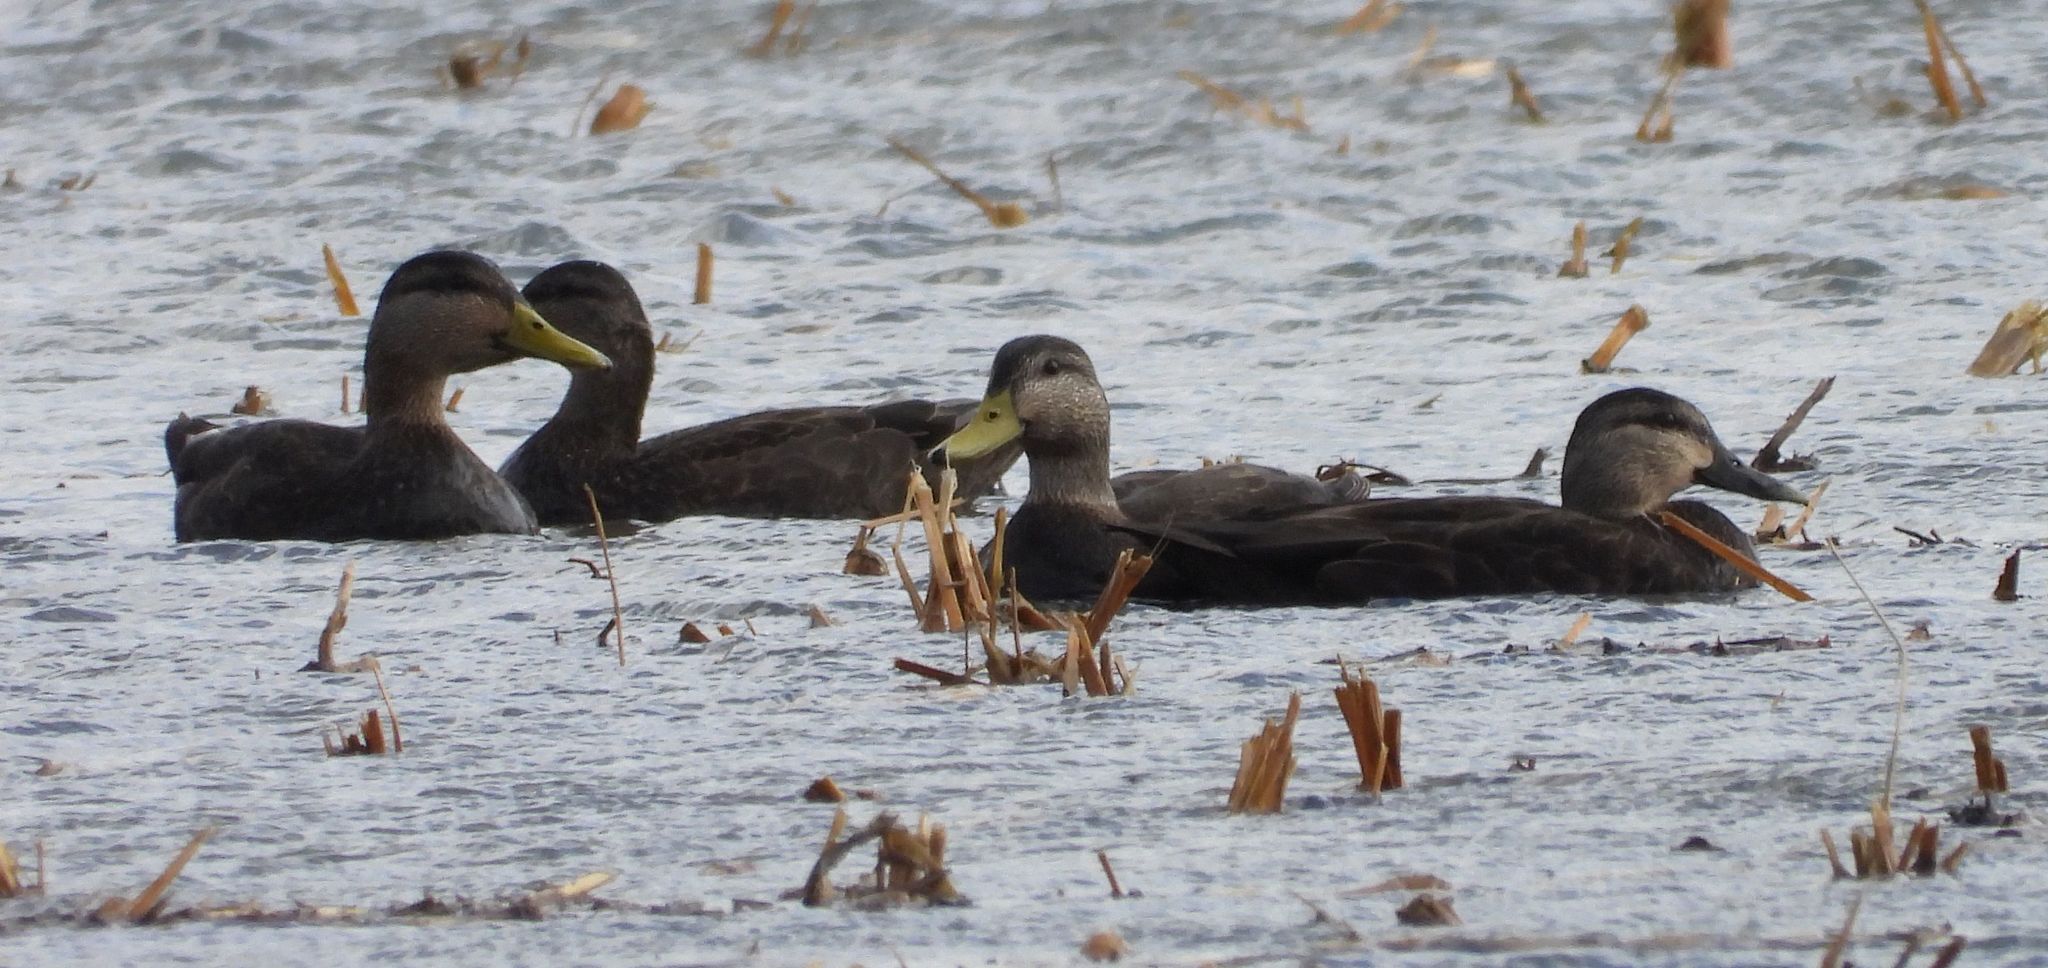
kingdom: Animalia
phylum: Chordata
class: Aves
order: Anseriformes
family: Anatidae
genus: Anas
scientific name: Anas rubripes
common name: American black duck
